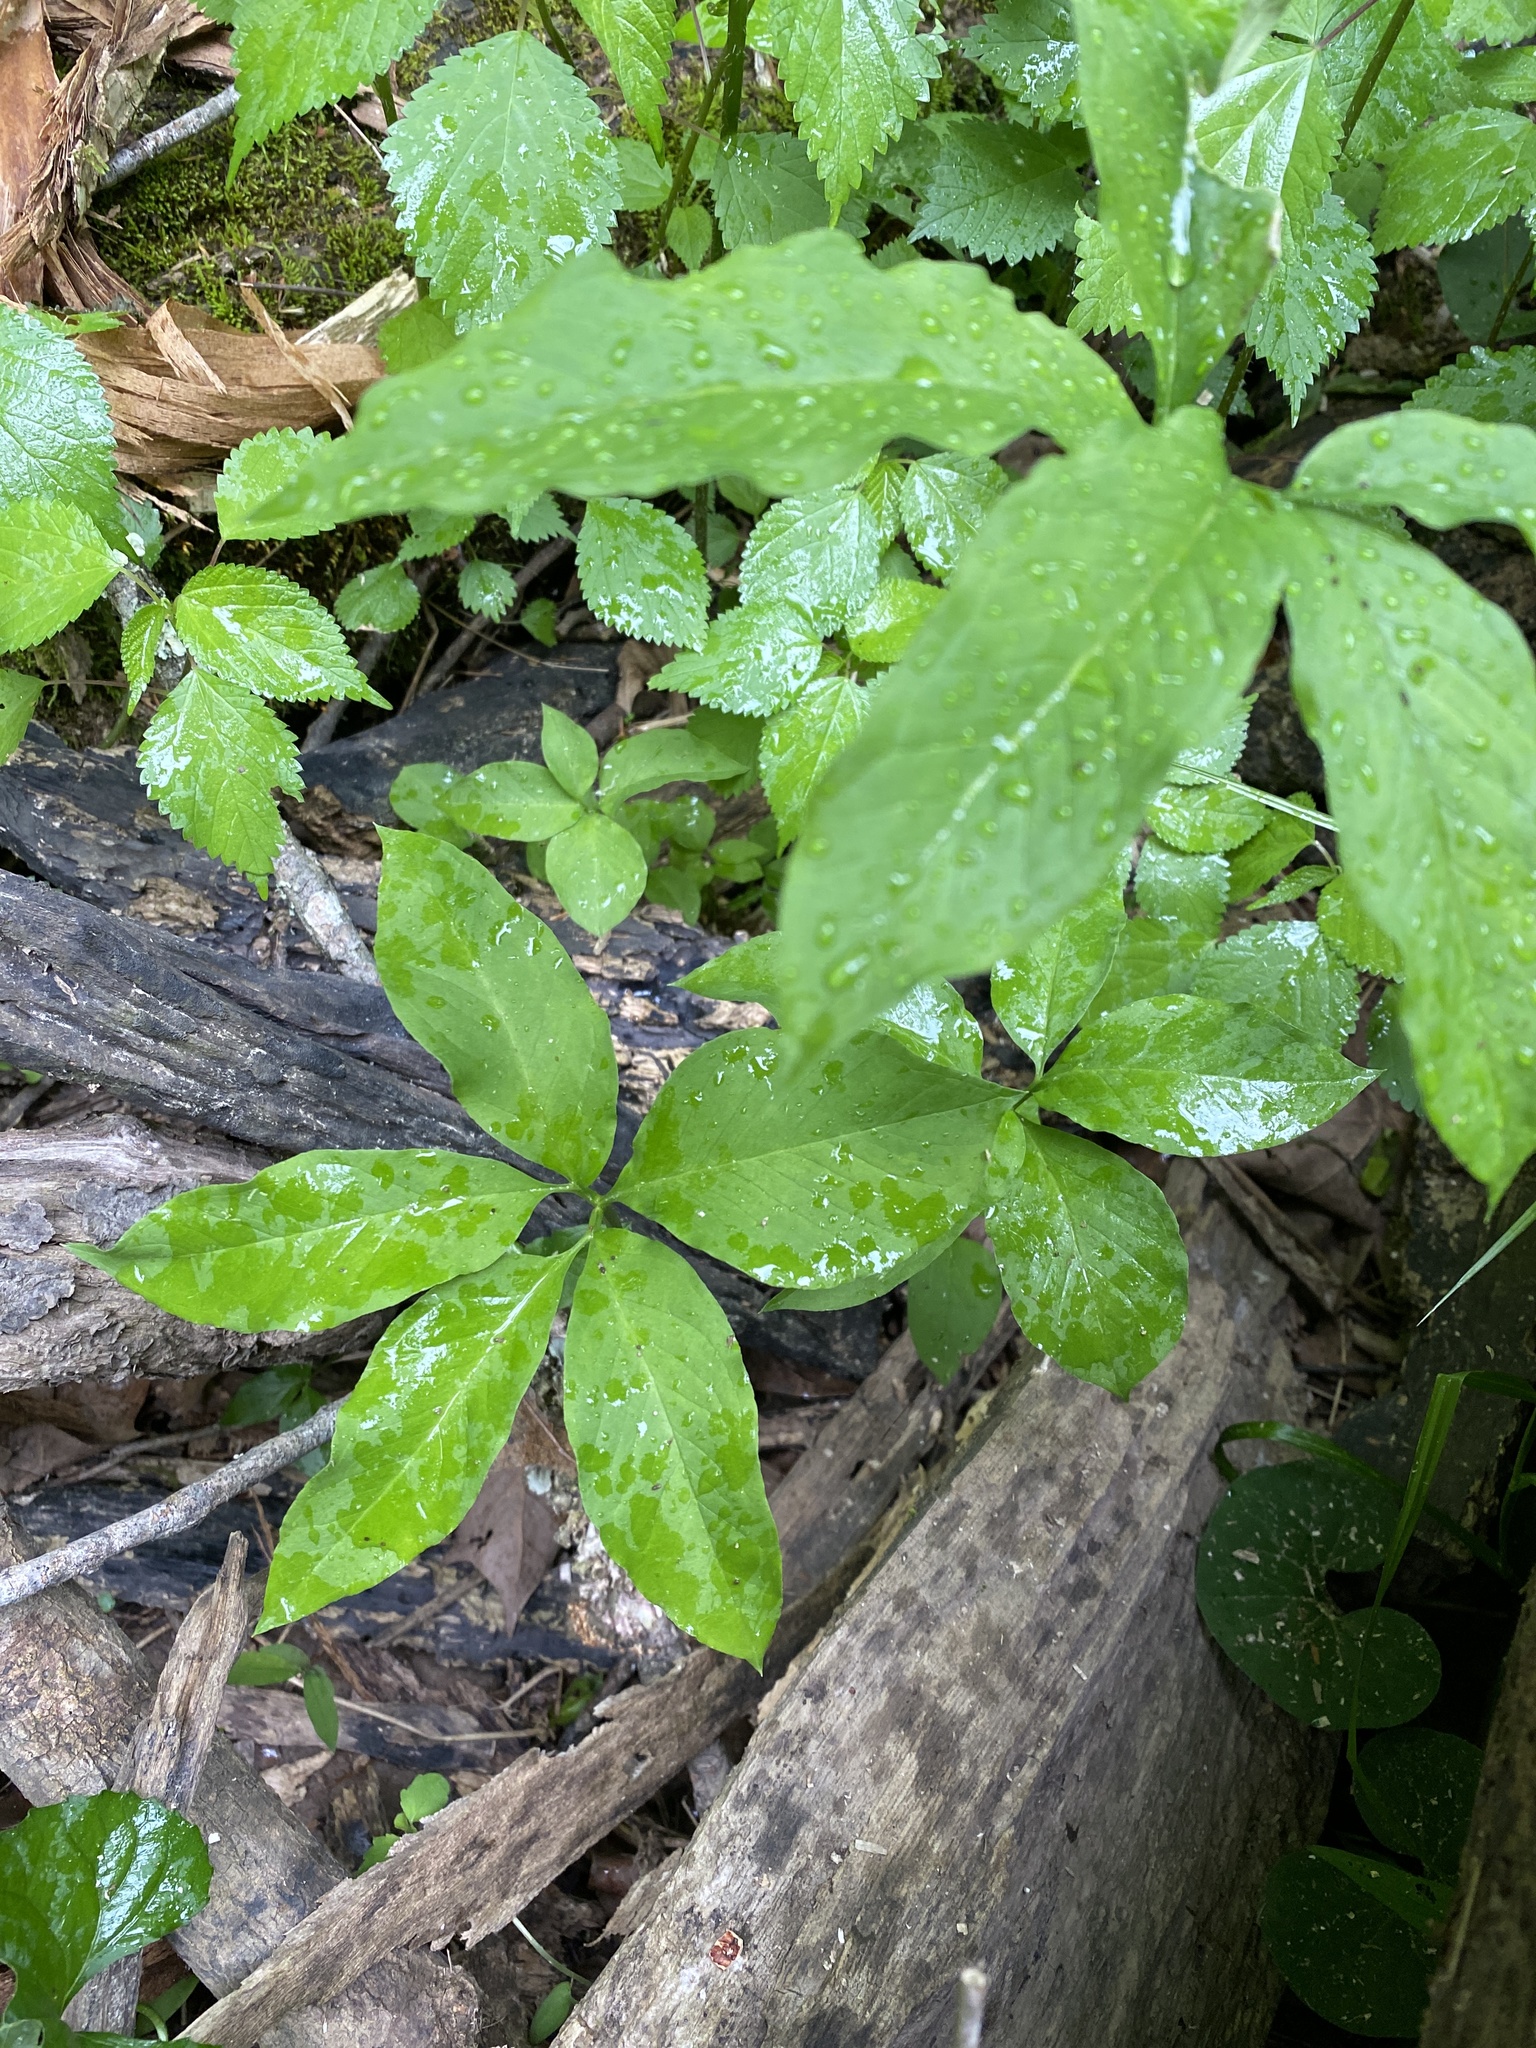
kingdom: Plantae
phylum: Tracheophyta
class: Liliopsida
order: Alismatales
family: Araceae
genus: Arisaema
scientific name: Arisaema dracontium
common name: Dragon-arum
